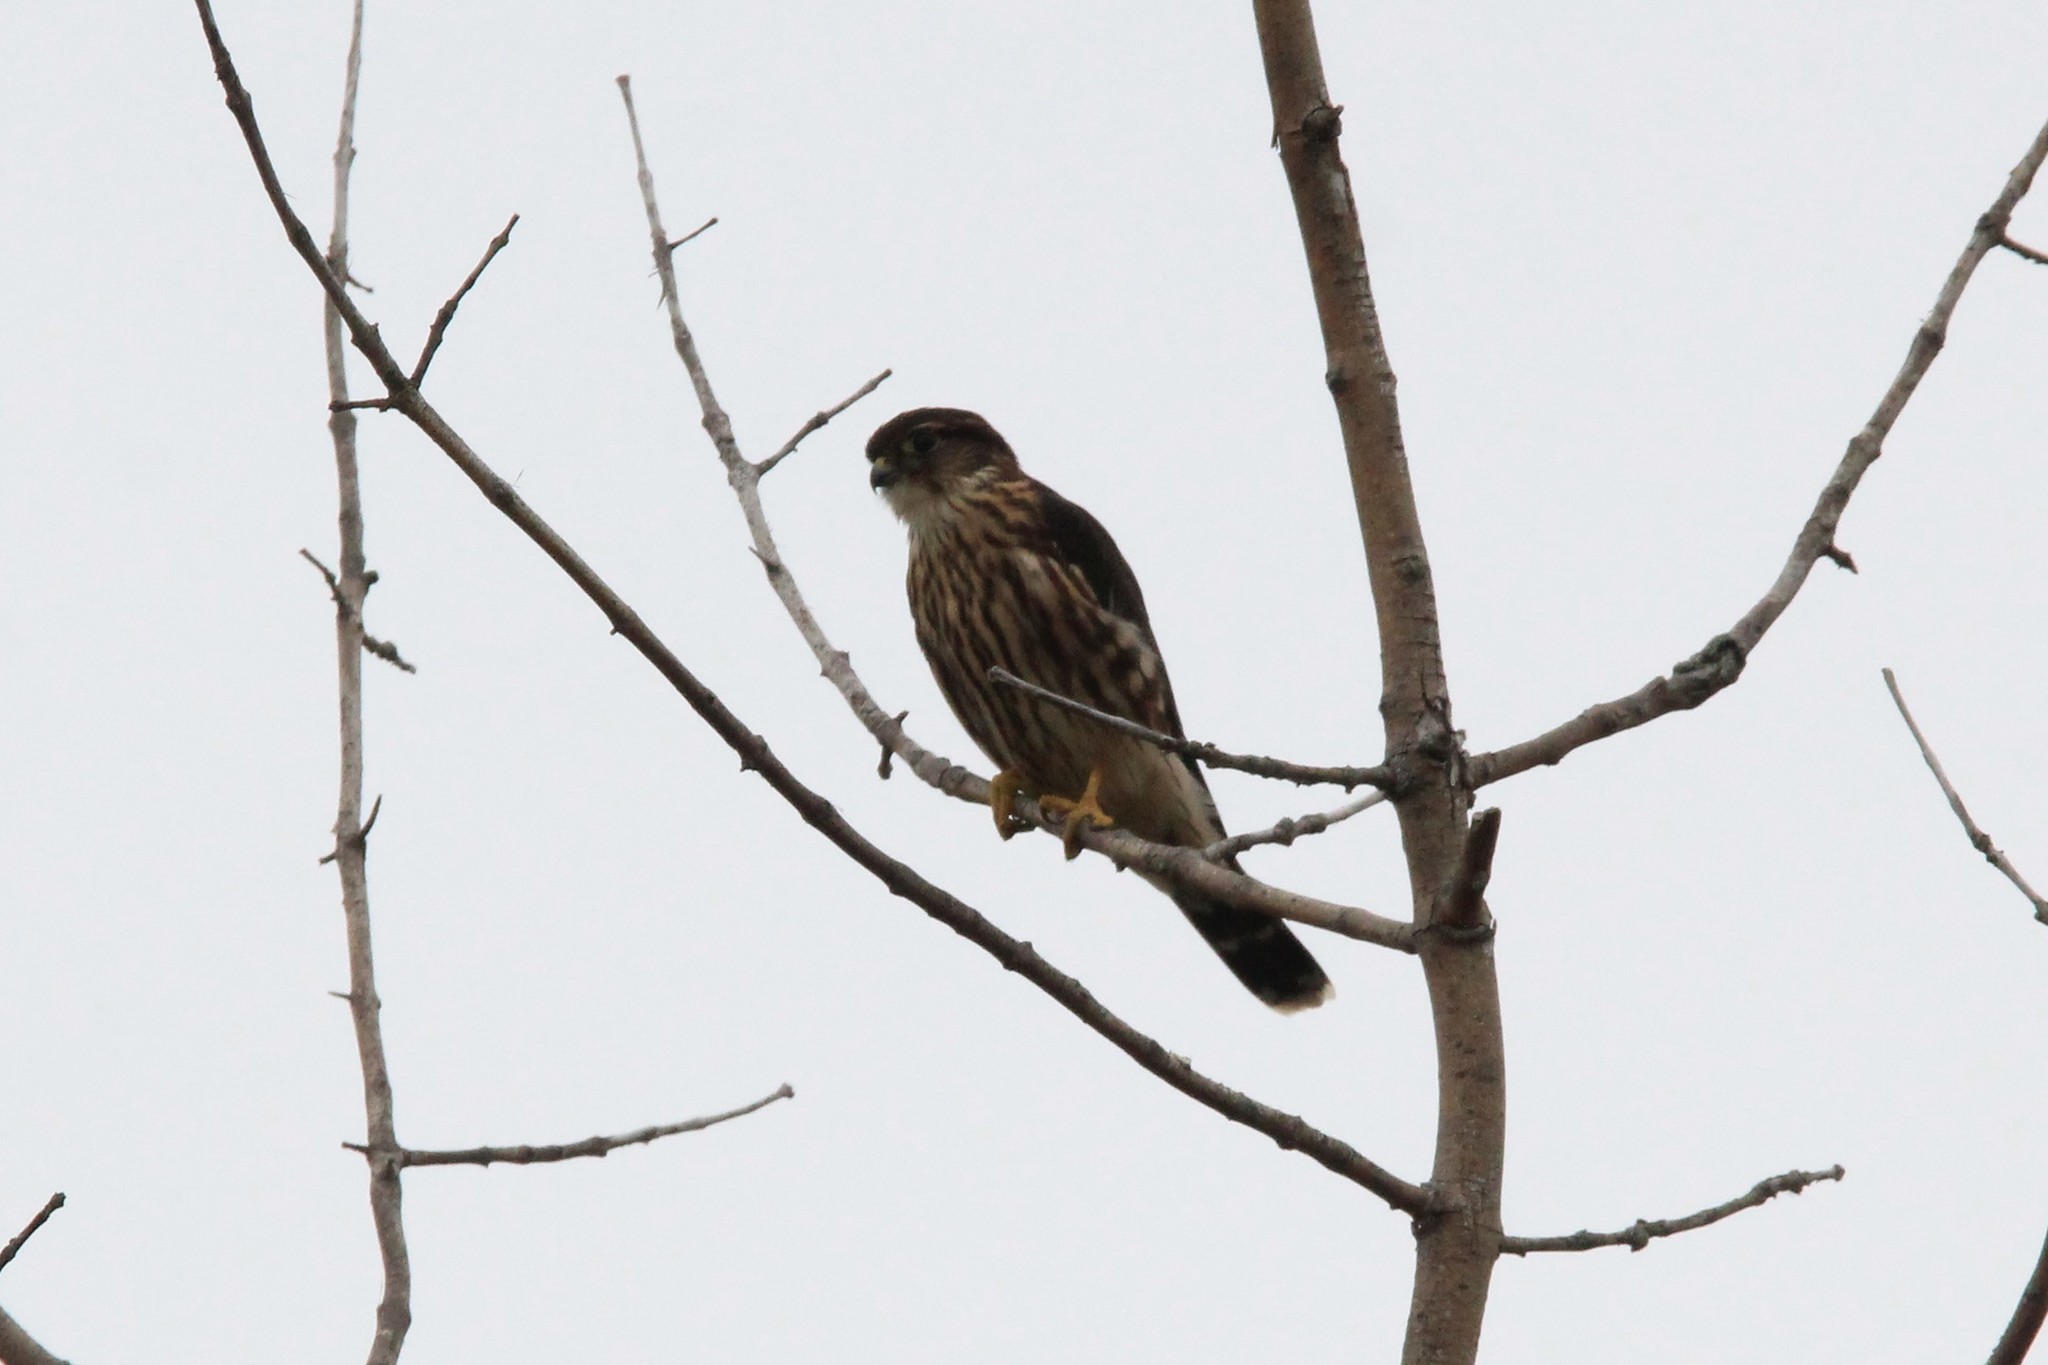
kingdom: Animalia
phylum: Chordata
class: Aves
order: Falconiformes
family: Falconidae
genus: Falco
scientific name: Falco columbarius
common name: Merlin
